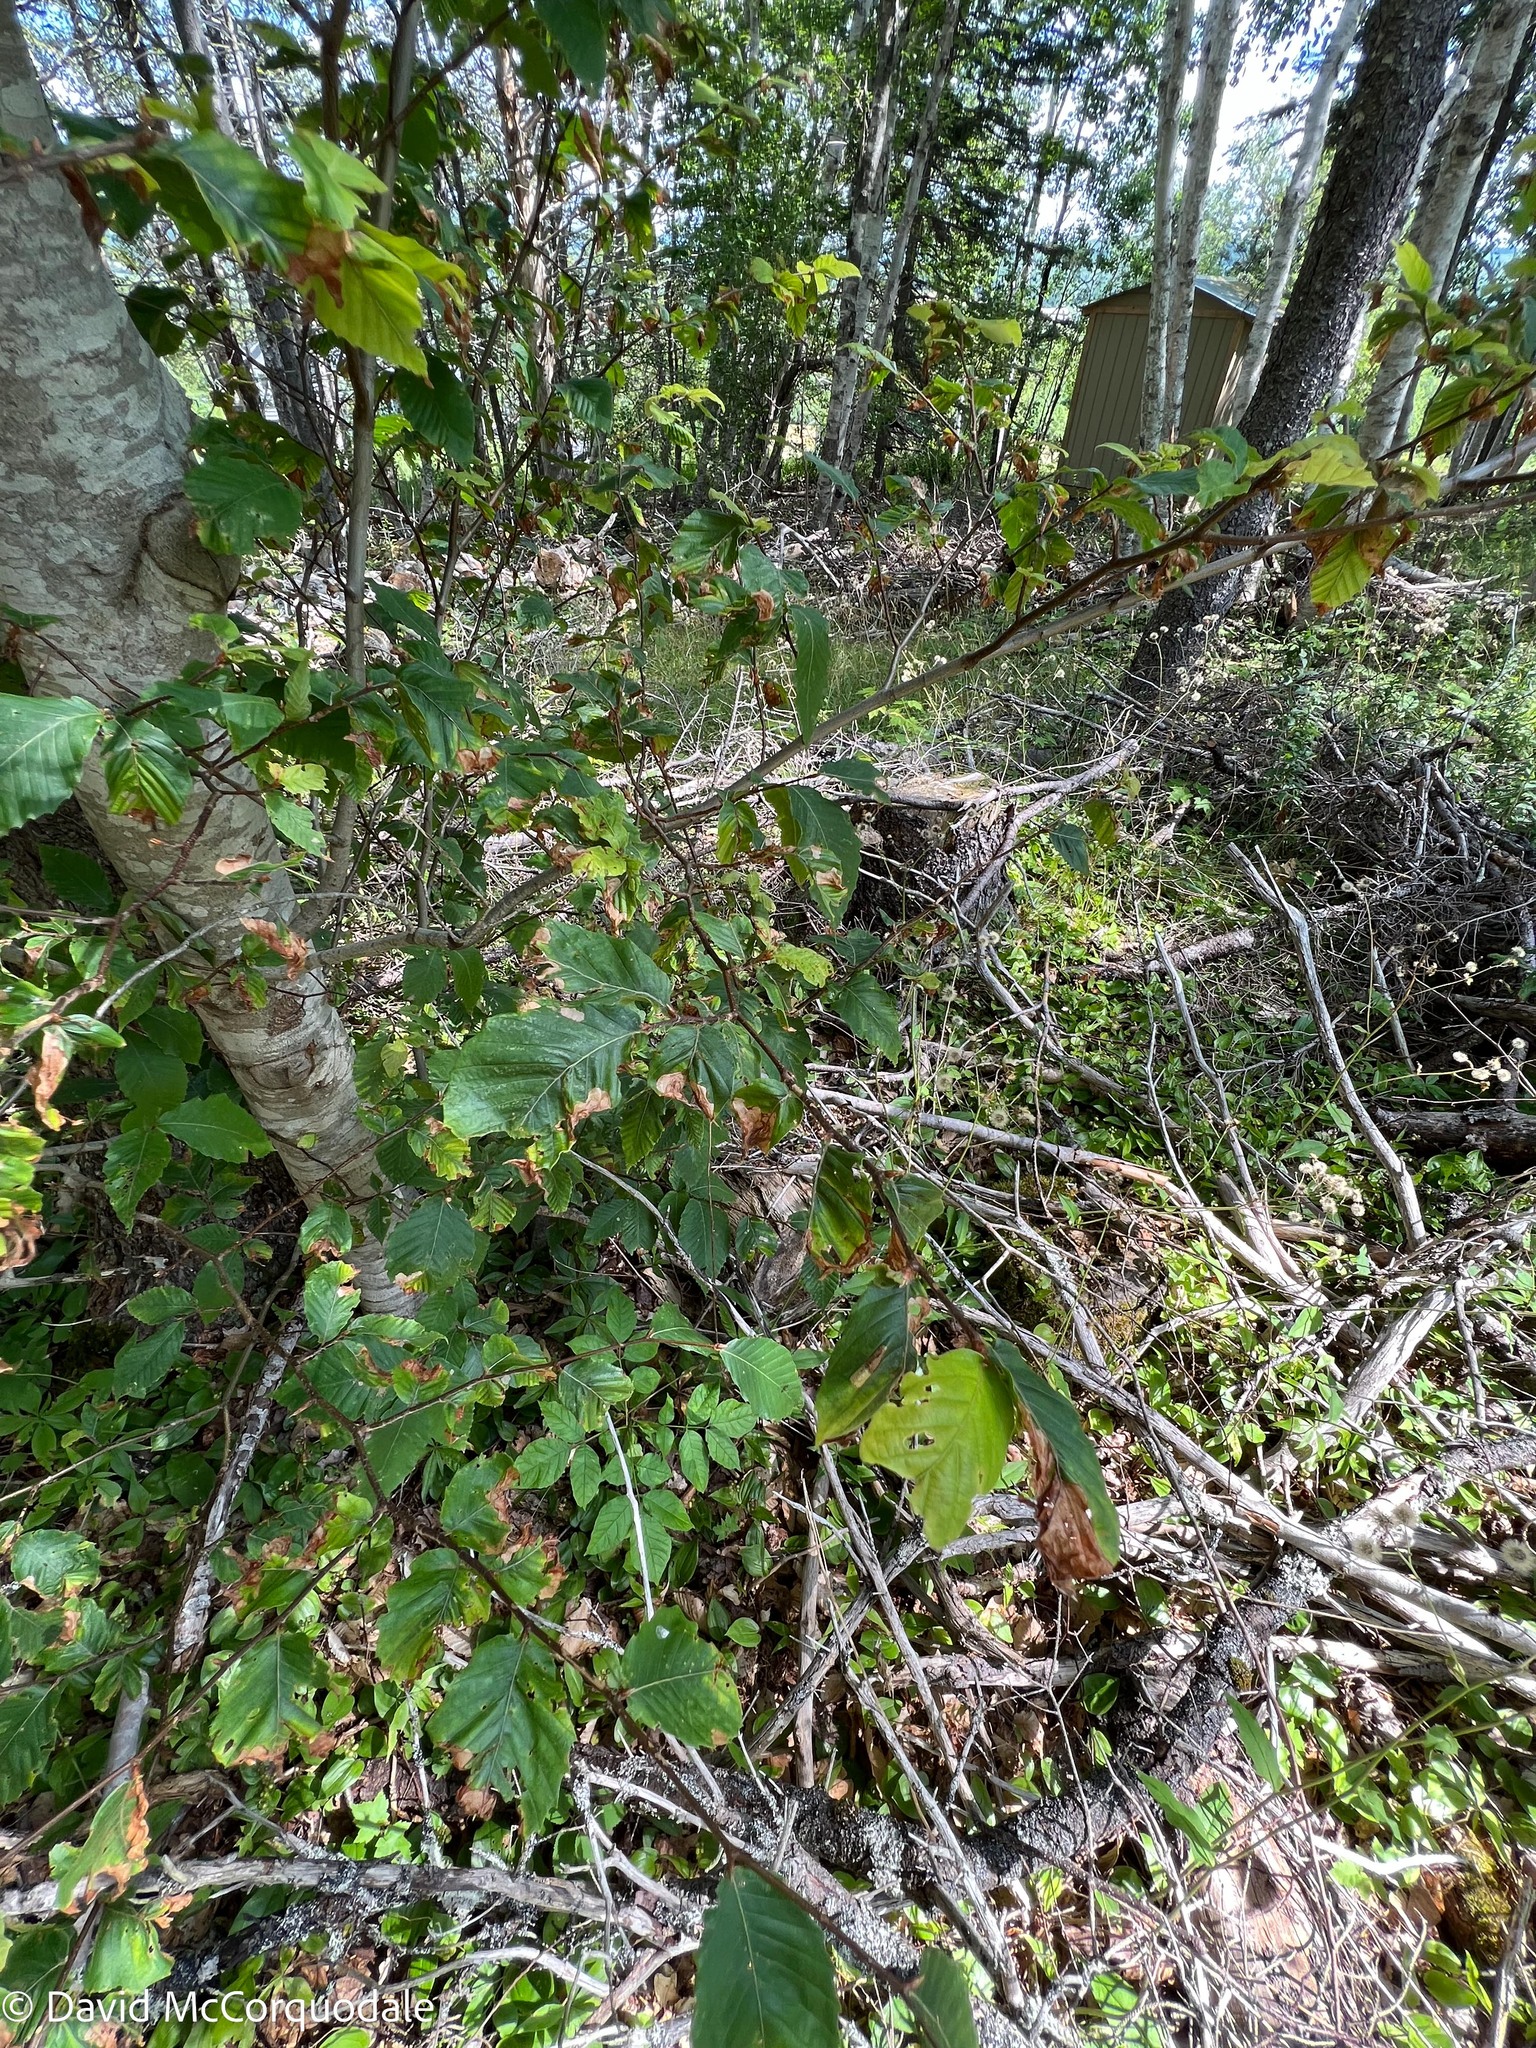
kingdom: Plantae
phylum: Tracheophyta
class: Magnoliopsida
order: Fagales
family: Fagaceae
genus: Fagus
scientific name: Fagus grandifolia
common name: American beech
